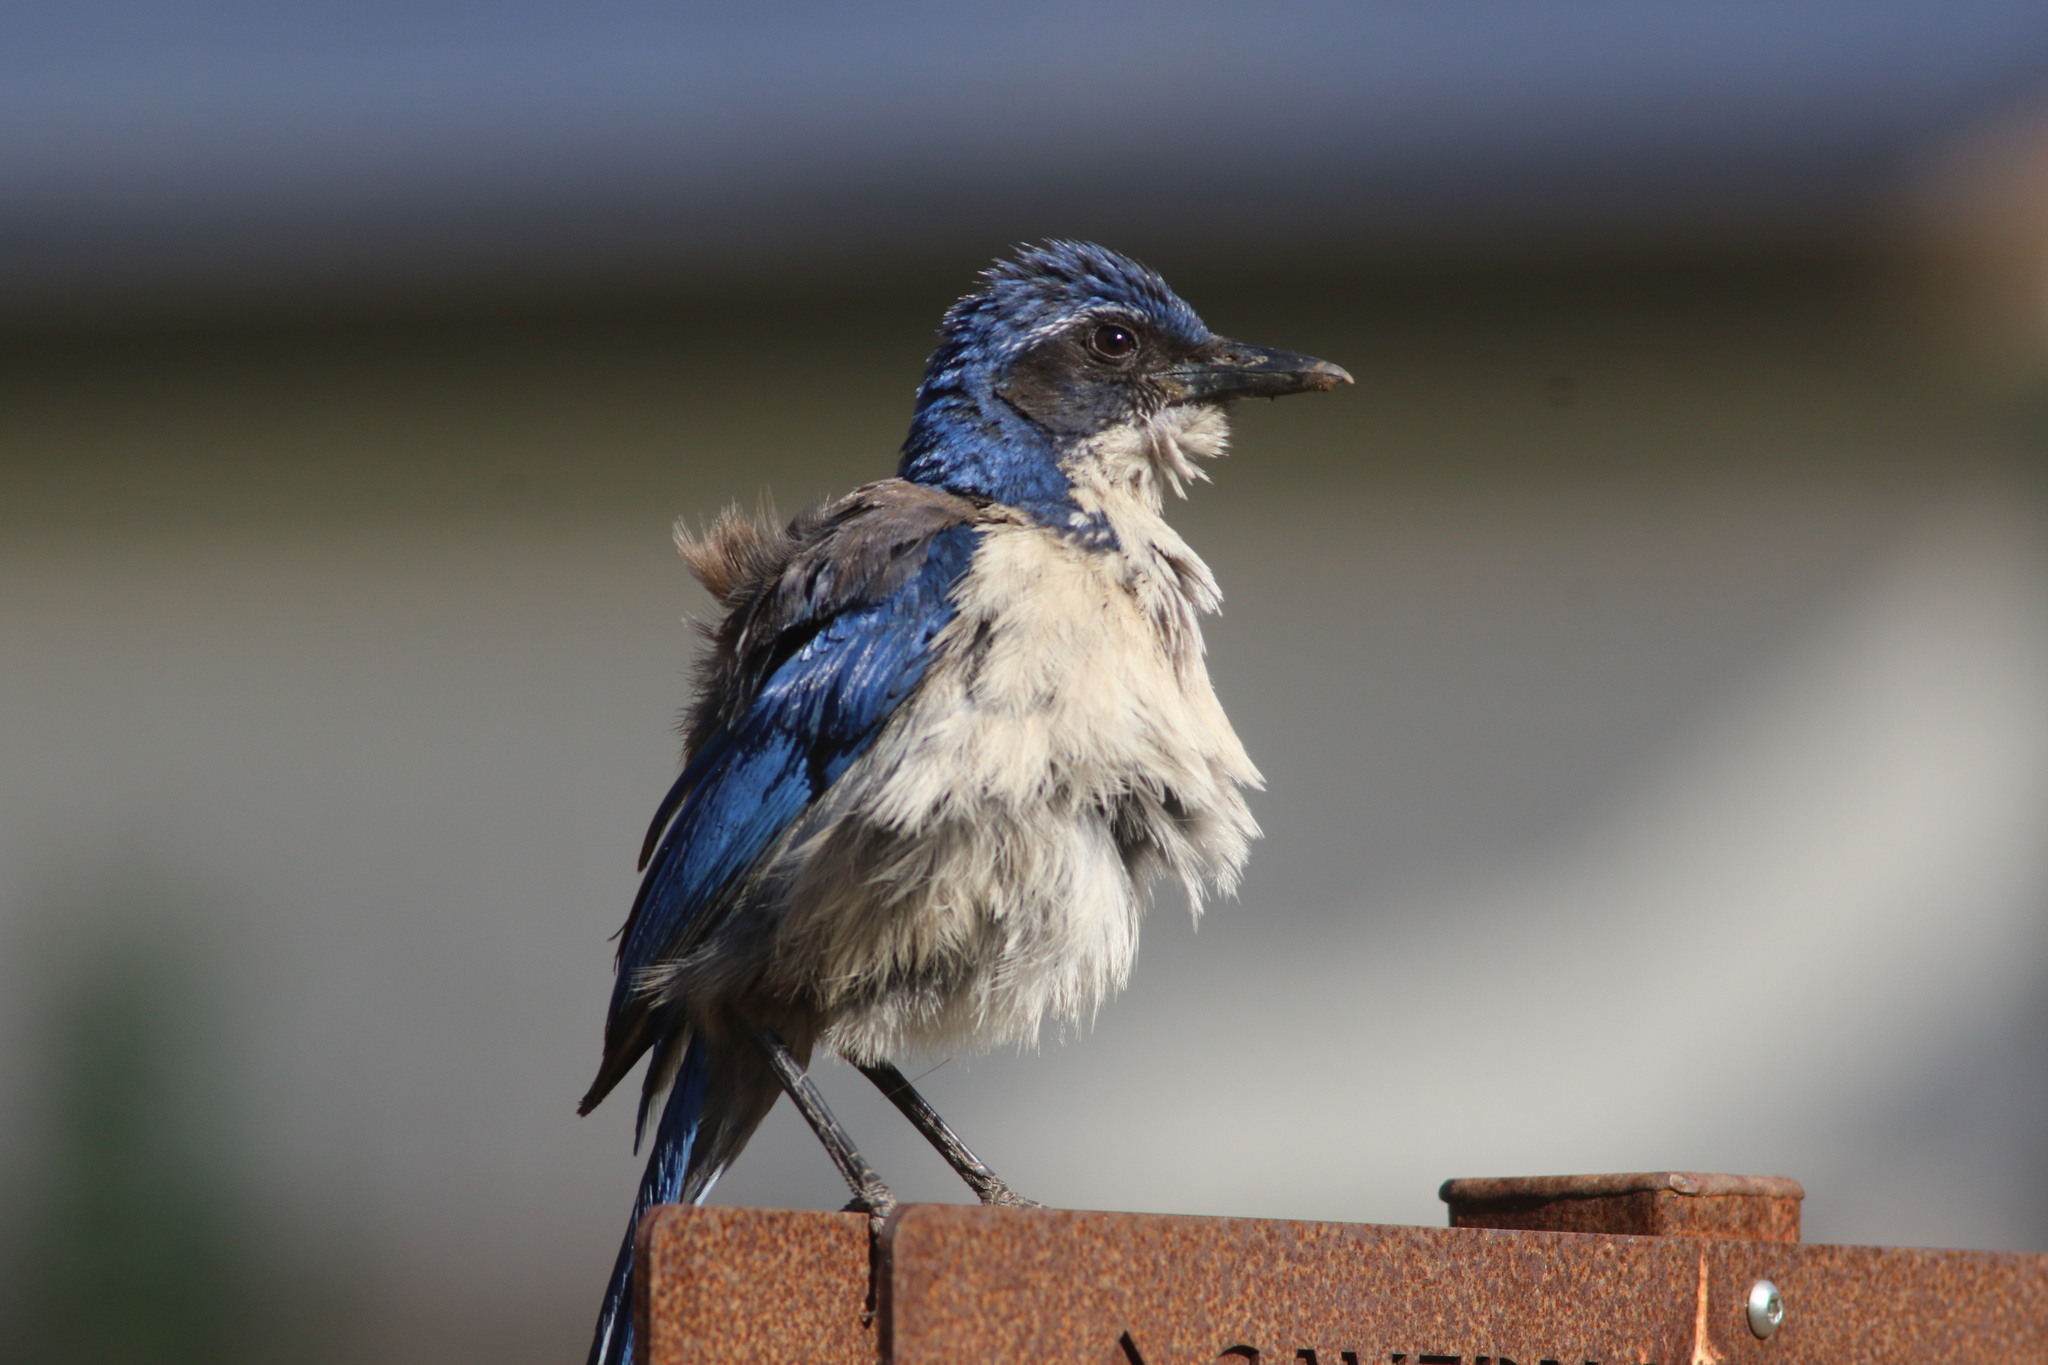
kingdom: Animalia
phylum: Chordata
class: Aves
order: Passeriformes
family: Corvidae
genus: Aphelocoma
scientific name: Aphelocoma insularis
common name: Island scrub-jay
